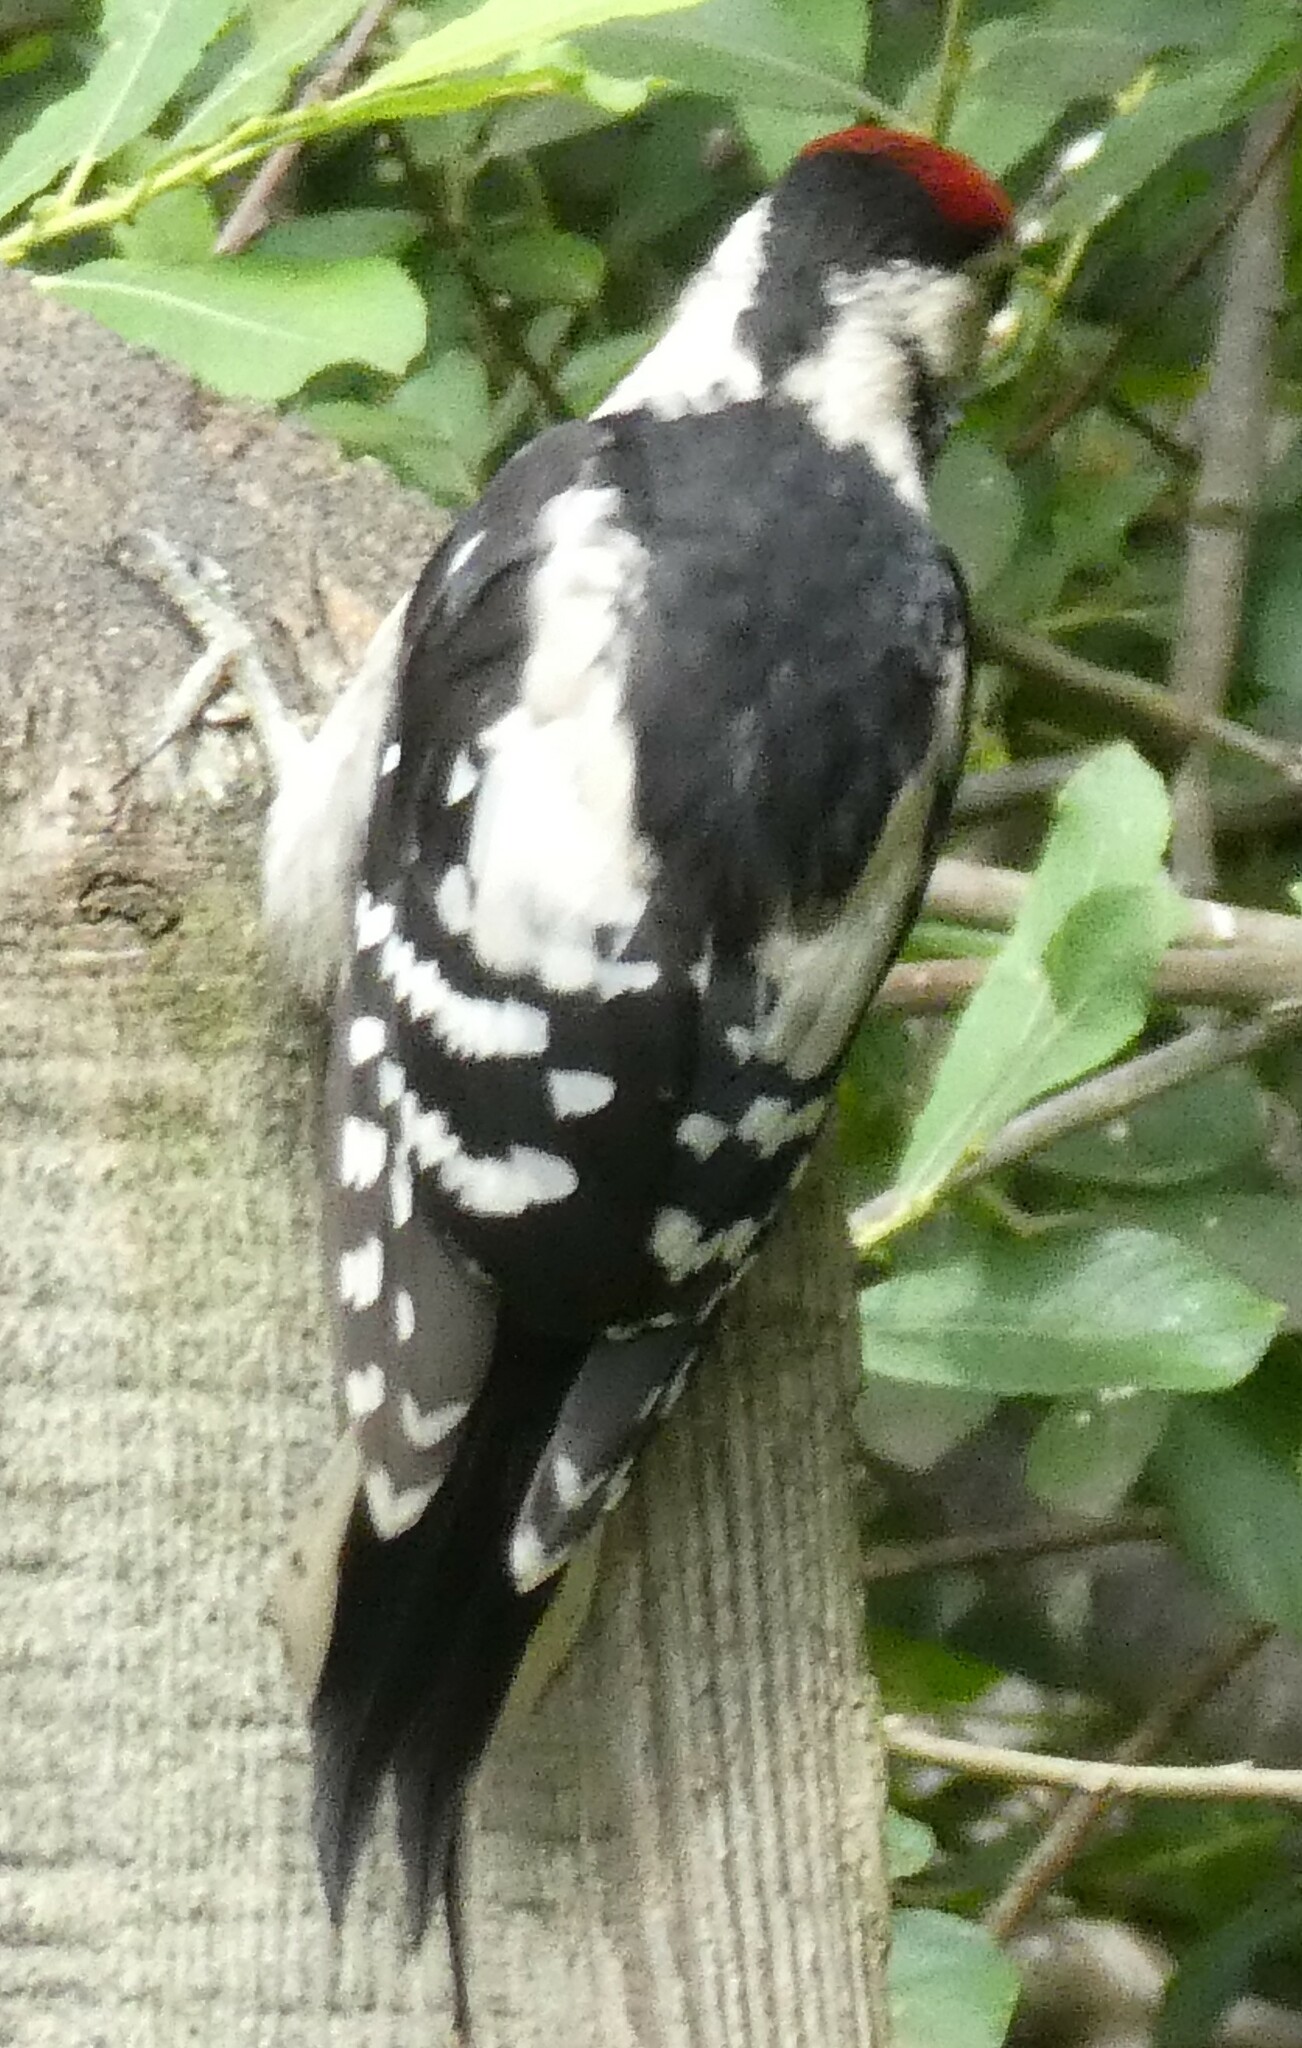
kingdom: Animalia
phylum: Chordata
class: Aves
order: Piciformes
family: Picidae
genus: Dendrocopos
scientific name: Dendrocopos major
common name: Great spotted woodpecker
